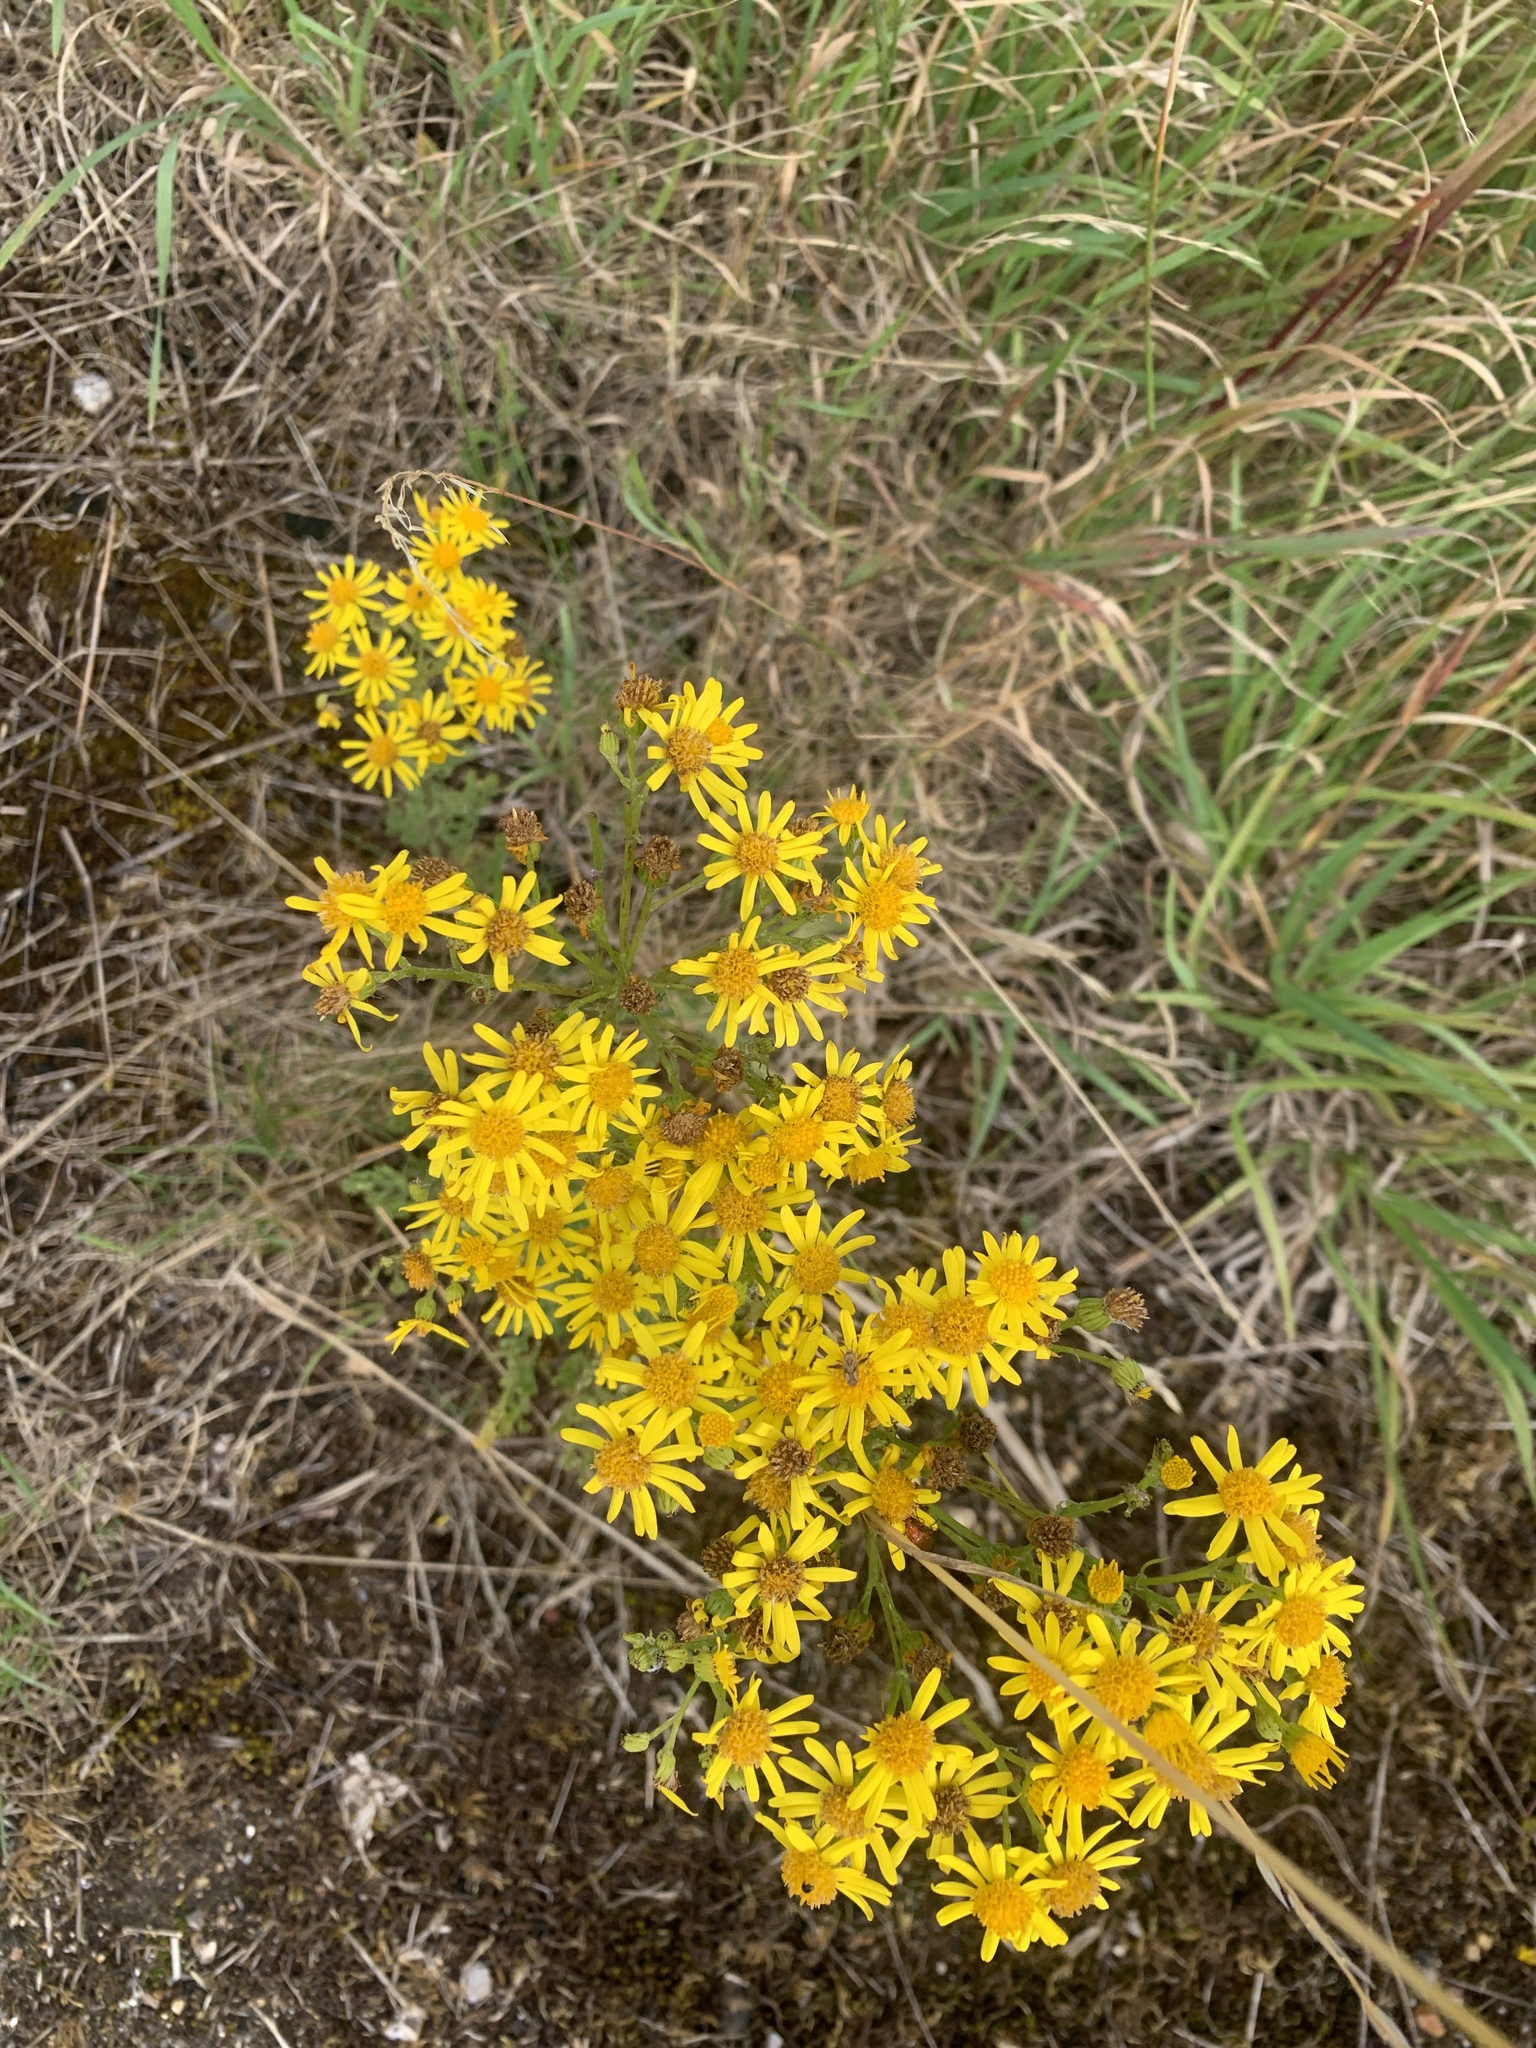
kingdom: Plantae
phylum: Tracheophyta
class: Magnoliopsida
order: Asterales
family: Asteraceae
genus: Jacobaea
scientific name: Jacobaea vulgaris
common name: Stinking willie
